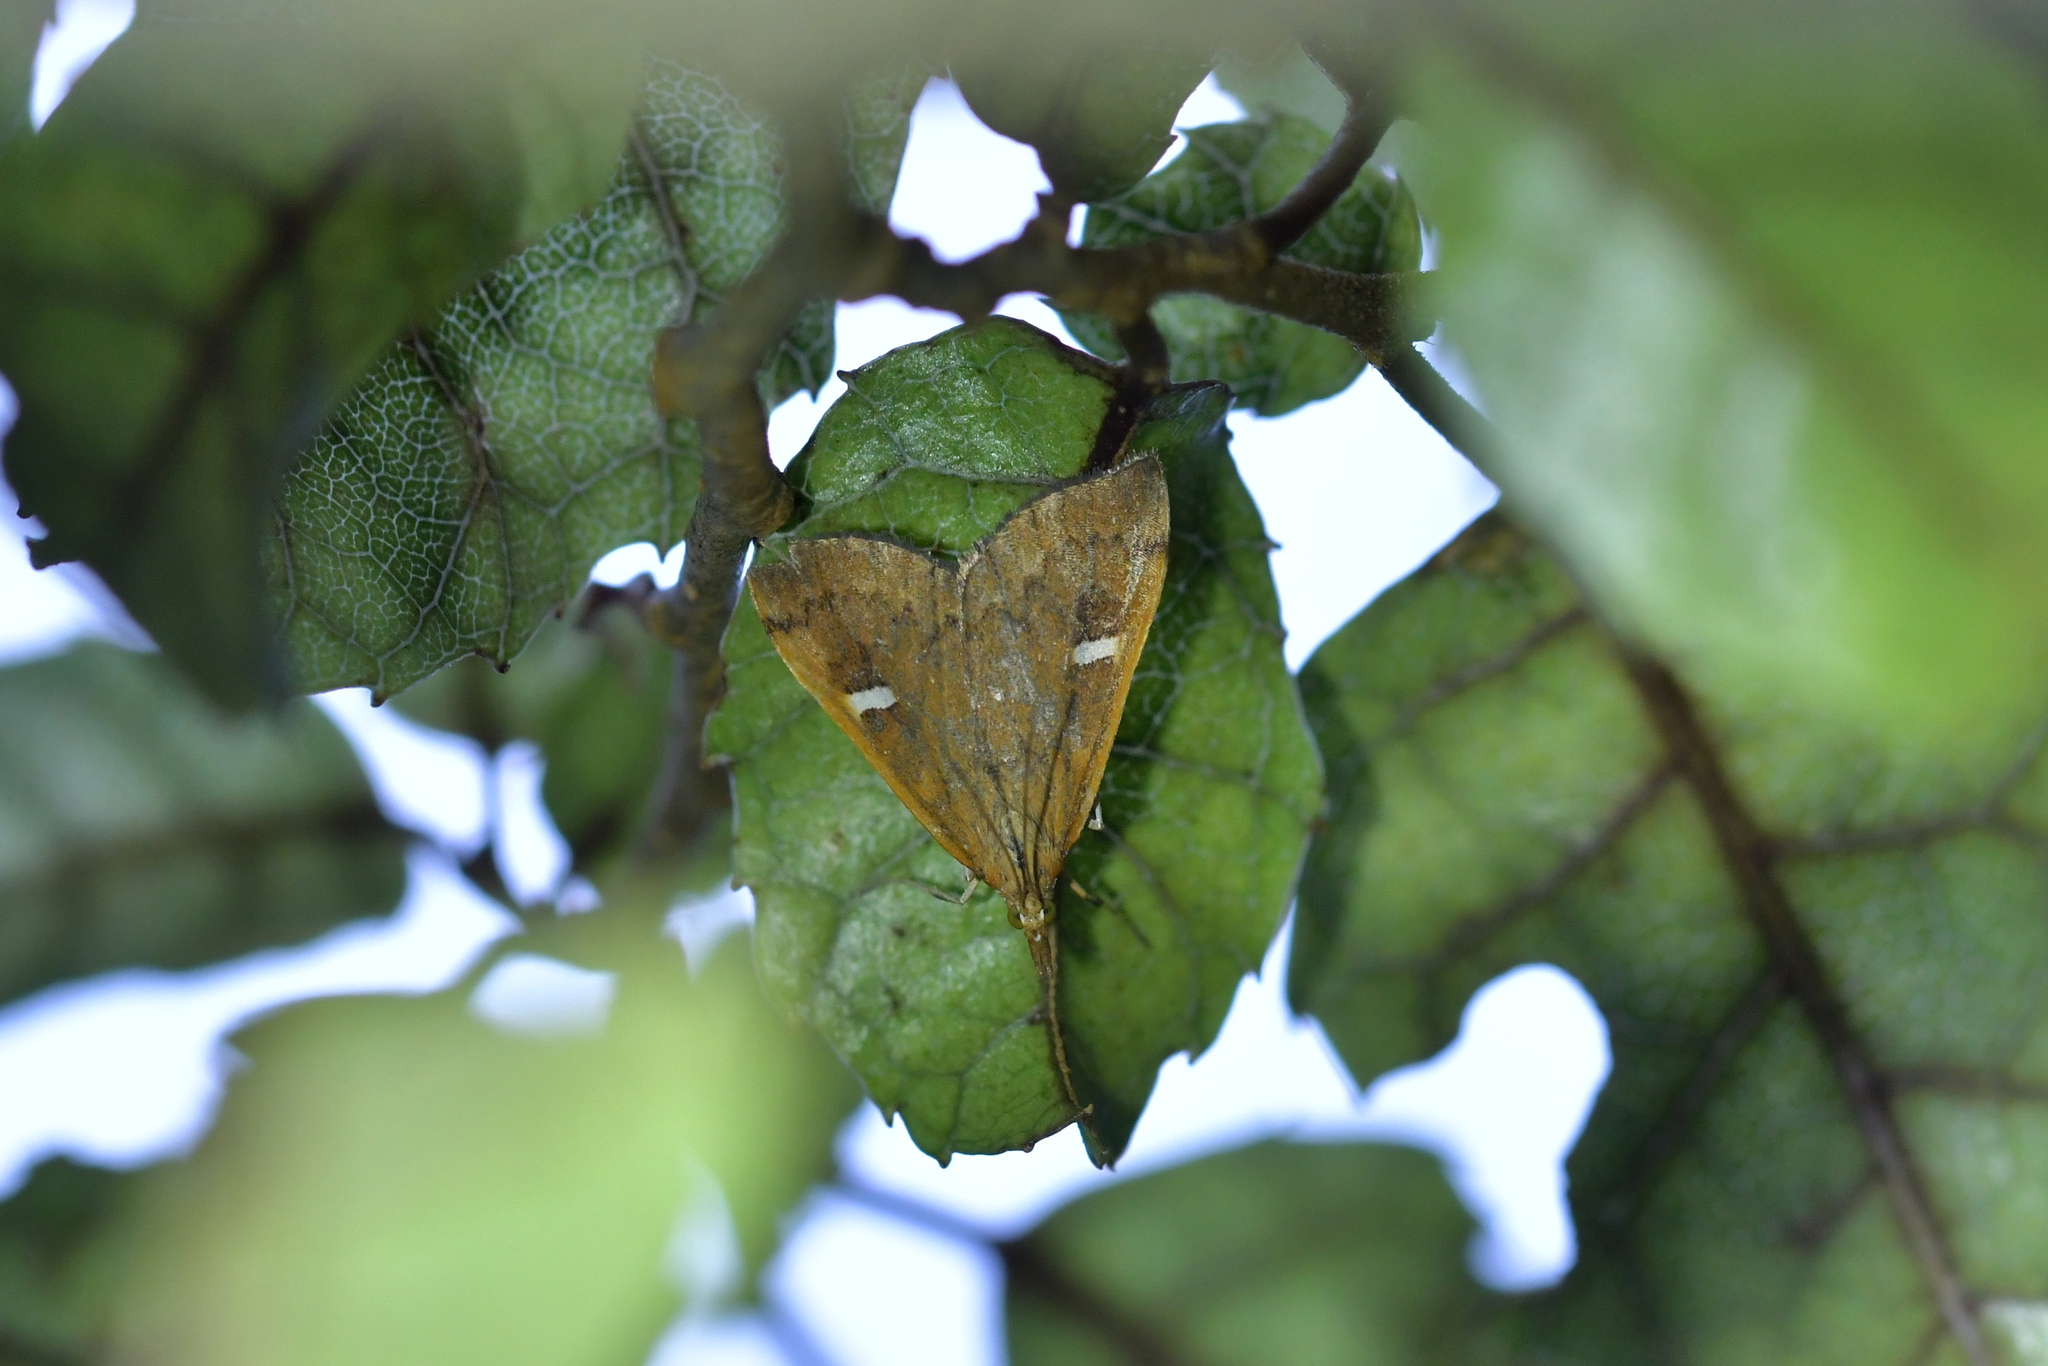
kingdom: Animalia
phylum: Arthropoda
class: Insecta
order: Lepidoptera
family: Crambidae
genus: Udea
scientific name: Udea notata
